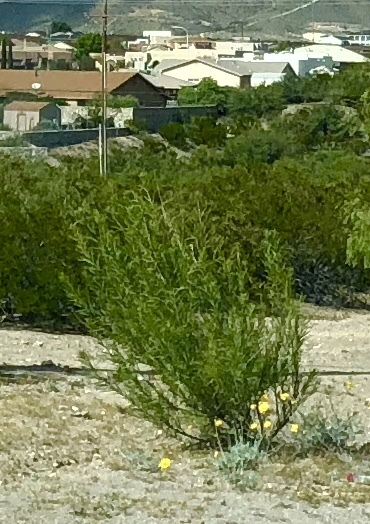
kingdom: Plantae
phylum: Tracheophyta
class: Magnoliopsida
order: Lamiales
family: Bignoniaceae
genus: Chilopsis
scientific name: Chilopsis linearis
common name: Desert-willow
